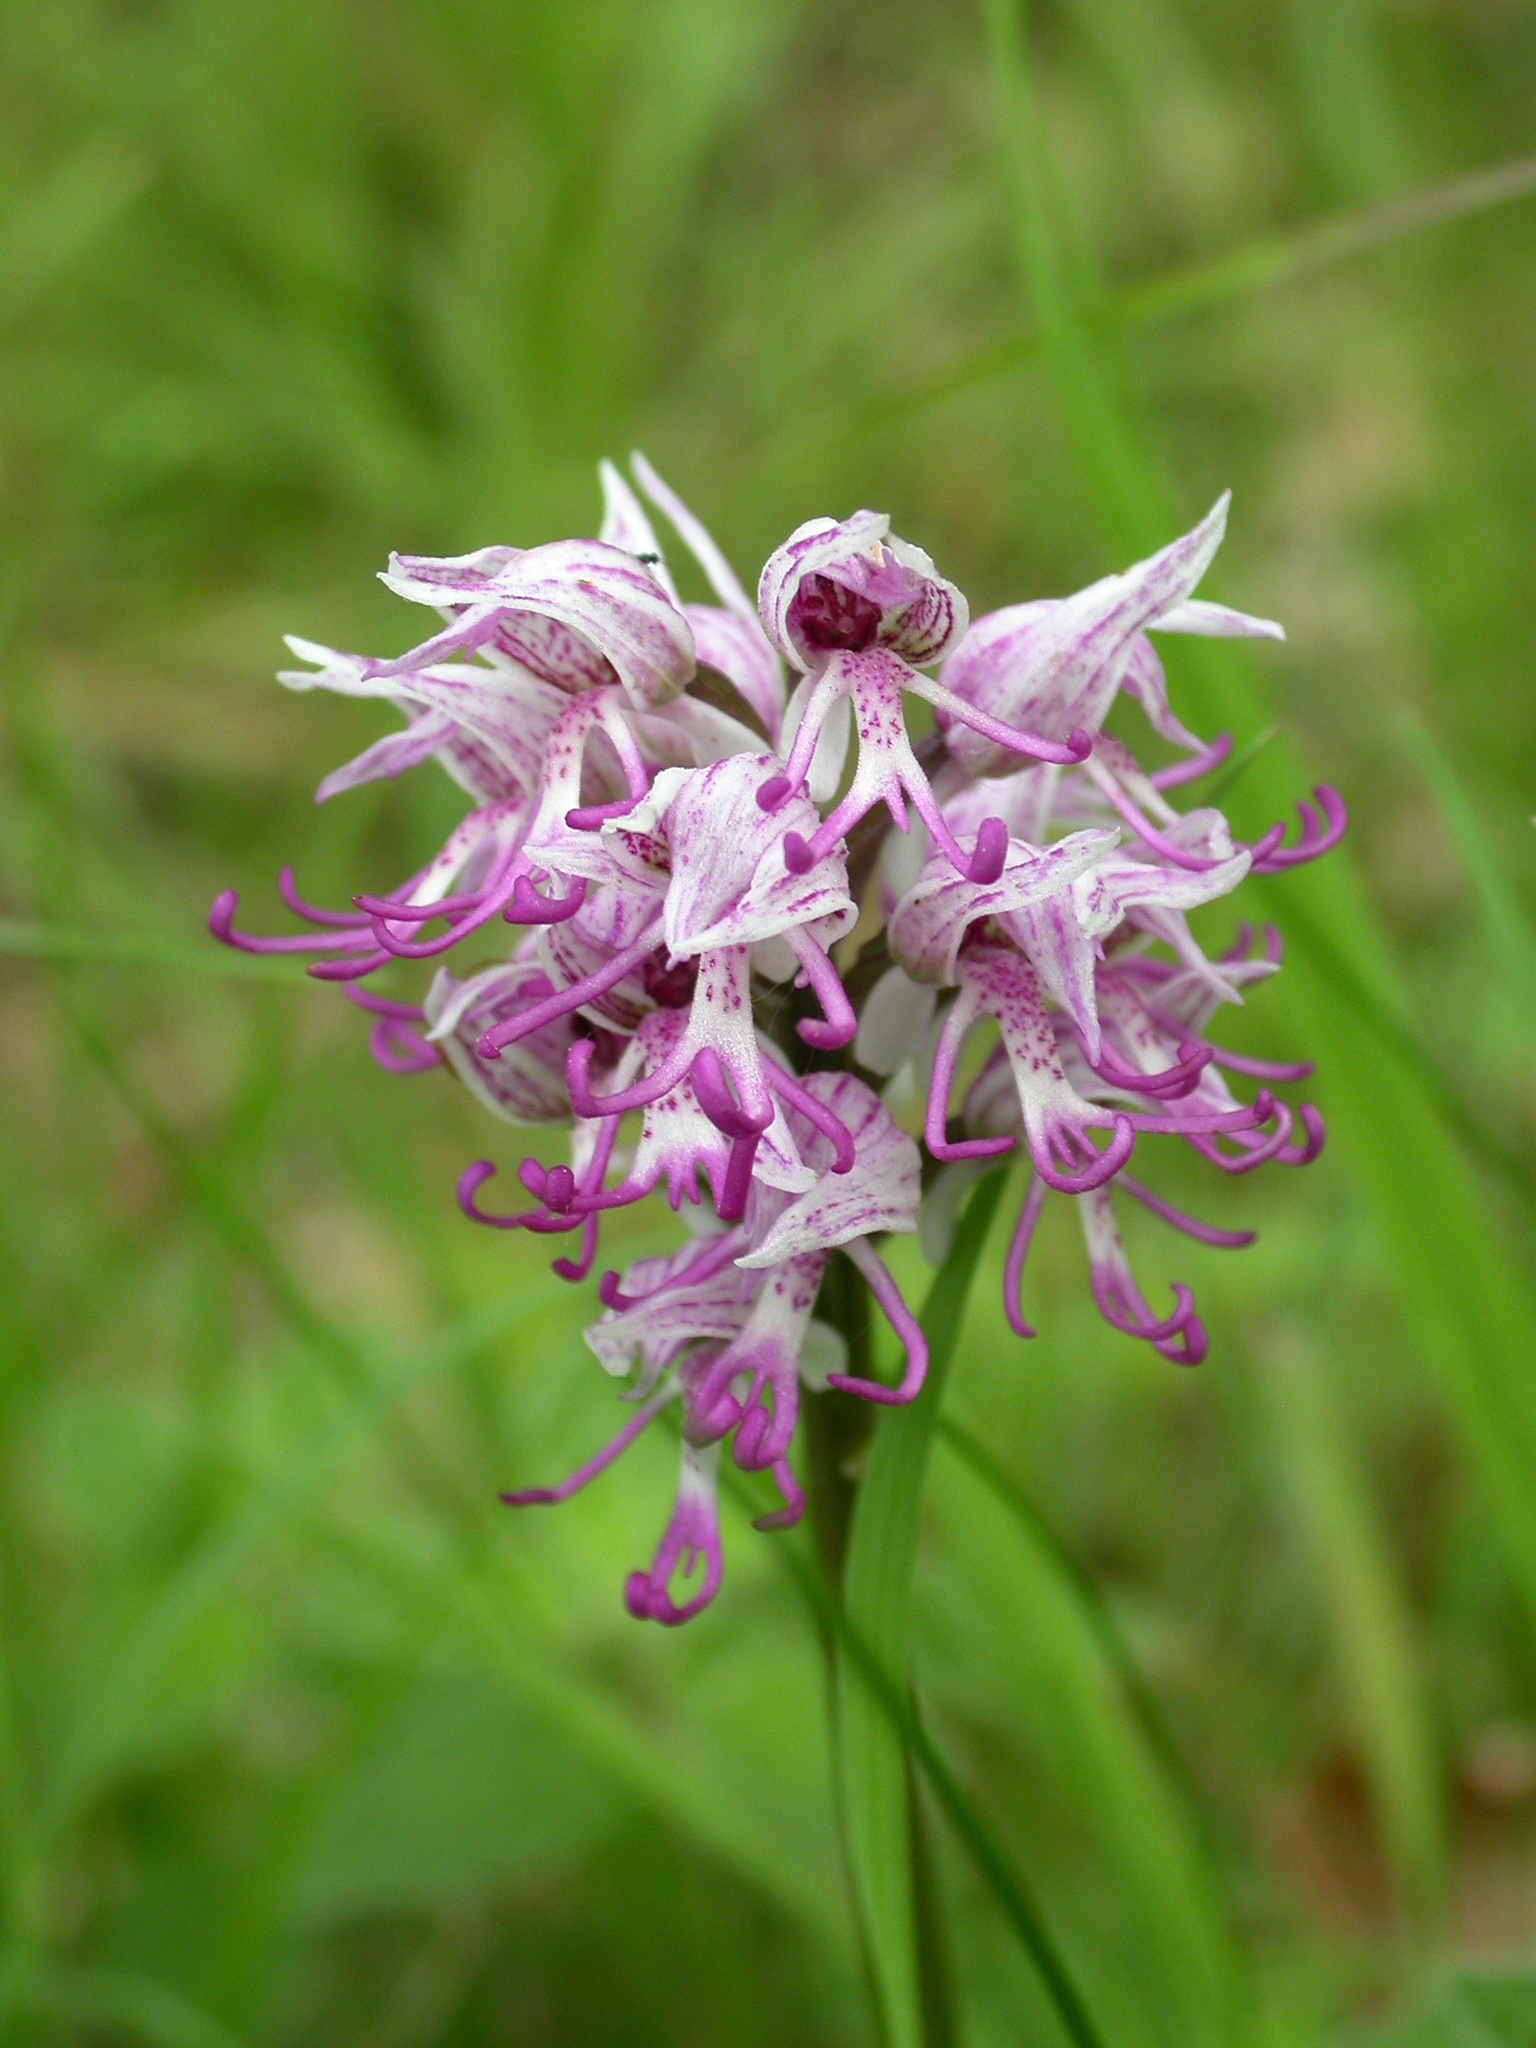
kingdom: Plantae
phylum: Tracheophyta
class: Liliopsida
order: Asparagales
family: Orchidaceae
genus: Orchis
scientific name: Orchis simia
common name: Monkey orchid
